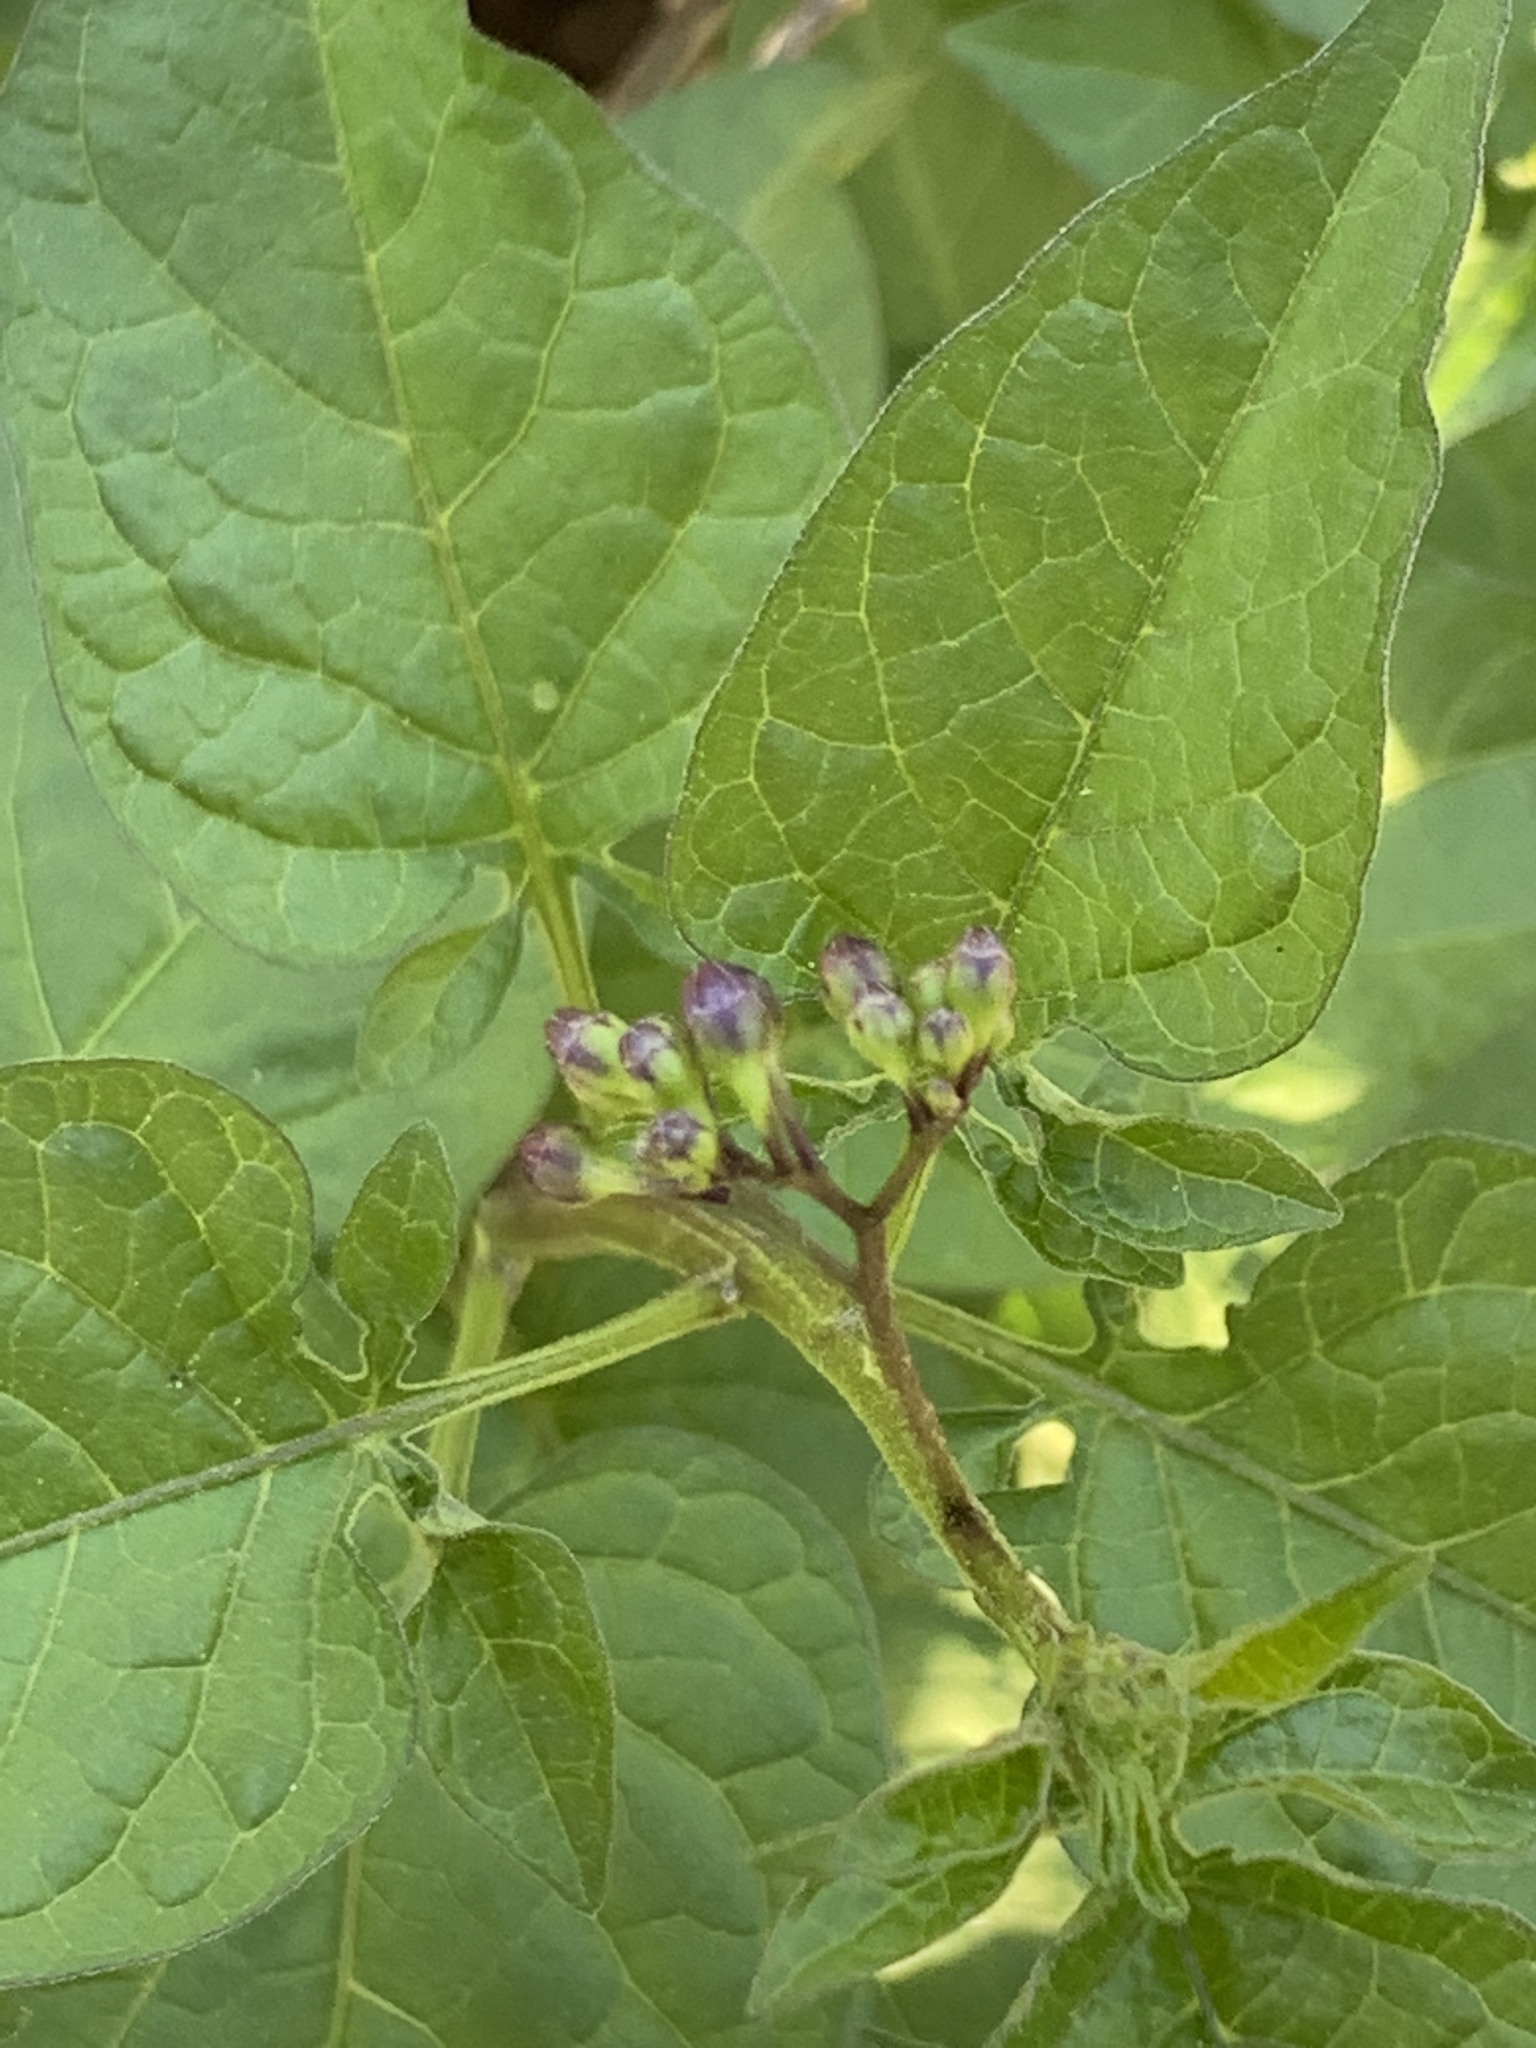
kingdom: Plantae
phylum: Tracheophyta
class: Magnoliopsida
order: Solanales
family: Solanaceae
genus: Solanum
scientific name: Solanum dulcamara
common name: Climbing nightshade
